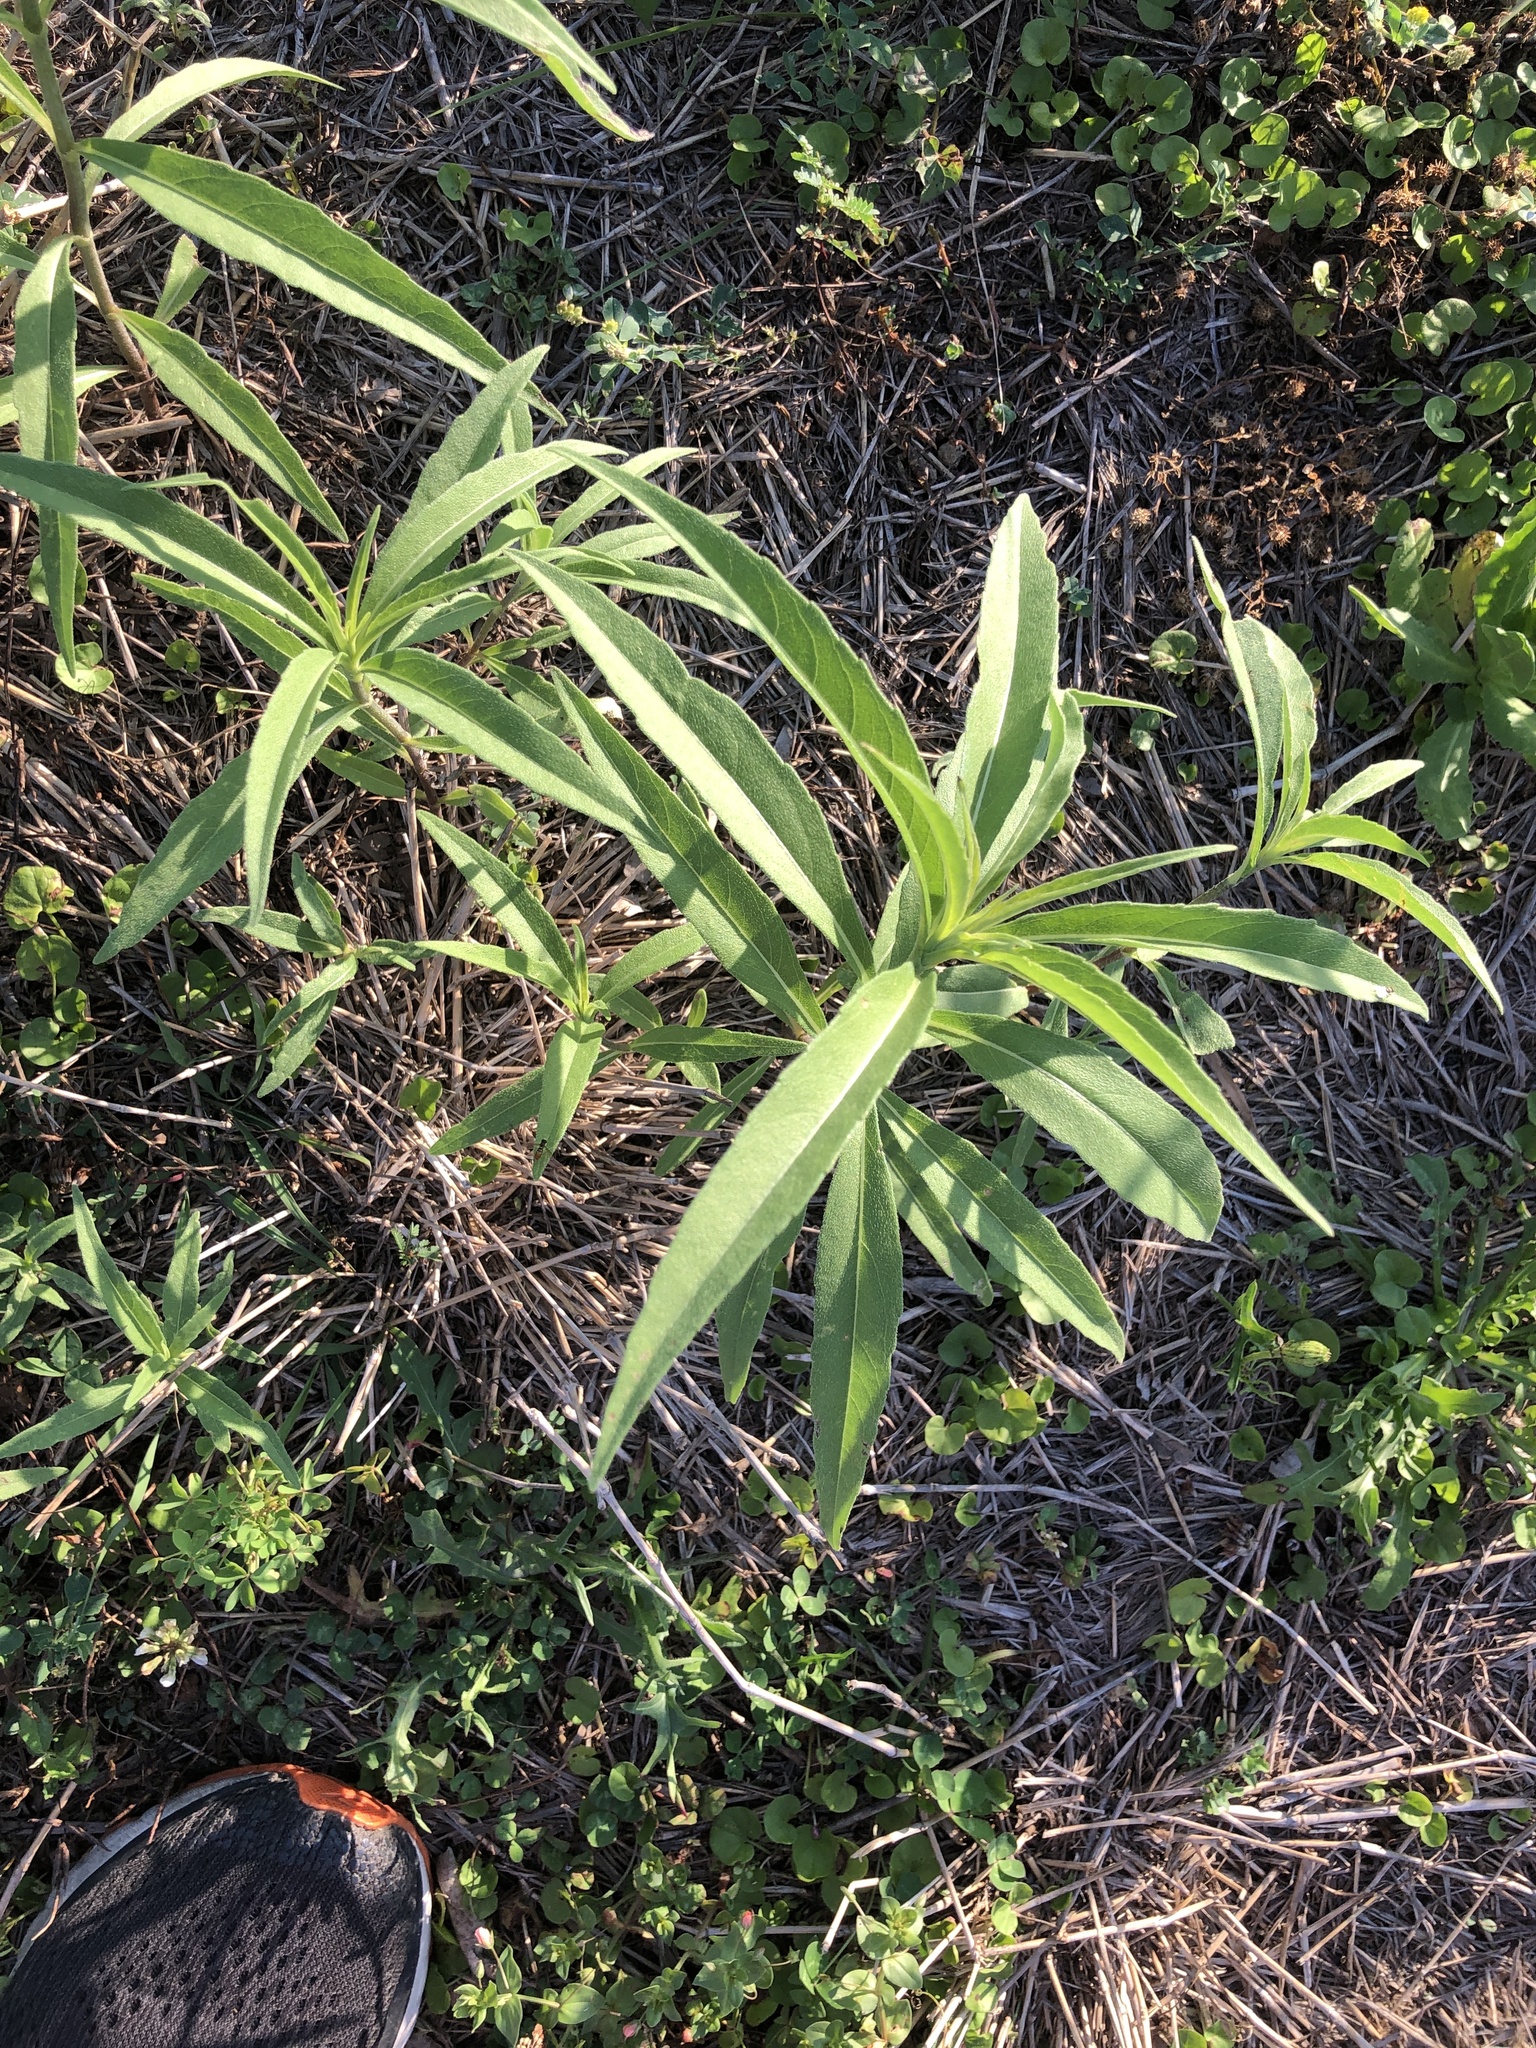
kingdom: Plantae
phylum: Tracheophyta
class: Magnoliopsida
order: Asterales
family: Asteraceae
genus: Helianthus
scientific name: Helianthus maximiliani
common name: Maximilian's sunflower
